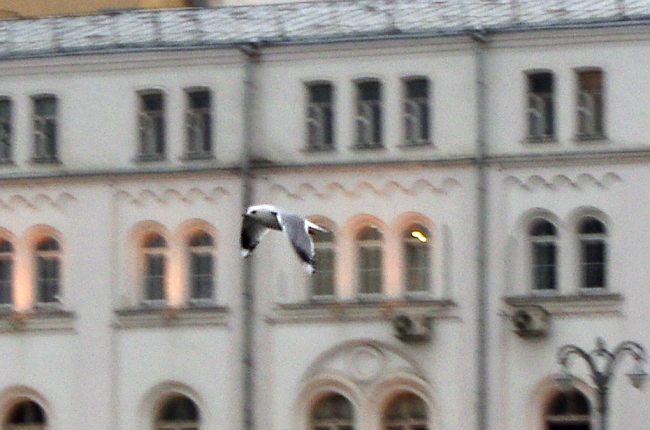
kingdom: Animalia
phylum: Chordata
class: Aves
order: Charadriiformes
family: Laridae
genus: Larus
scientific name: Larus canus
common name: Mew gull
